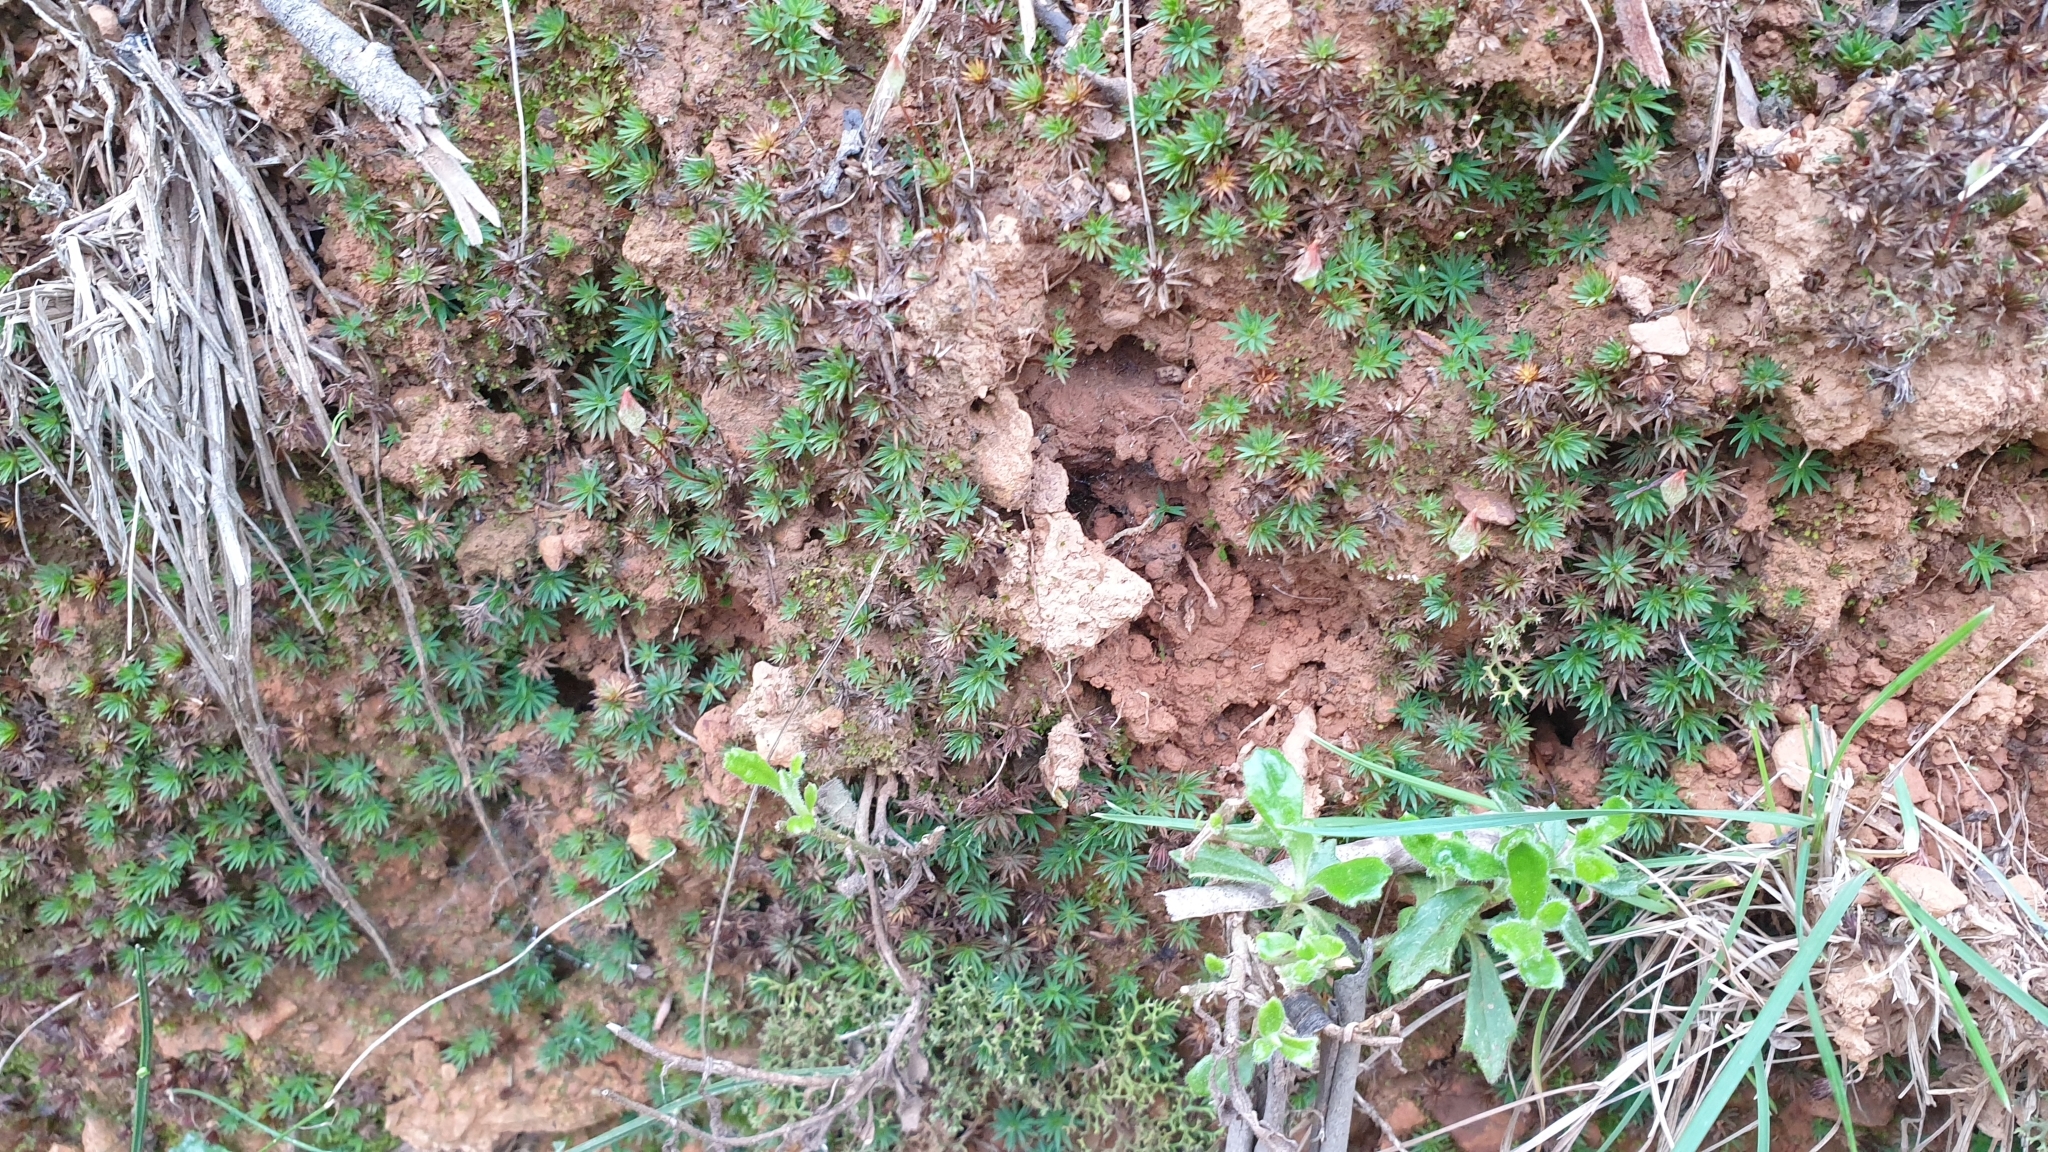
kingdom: Plantae
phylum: Bryophyta
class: Polytrichopsida
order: Polytrichales
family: Polytrichaceae
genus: Dawsonia
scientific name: Dawsonia longiseta
